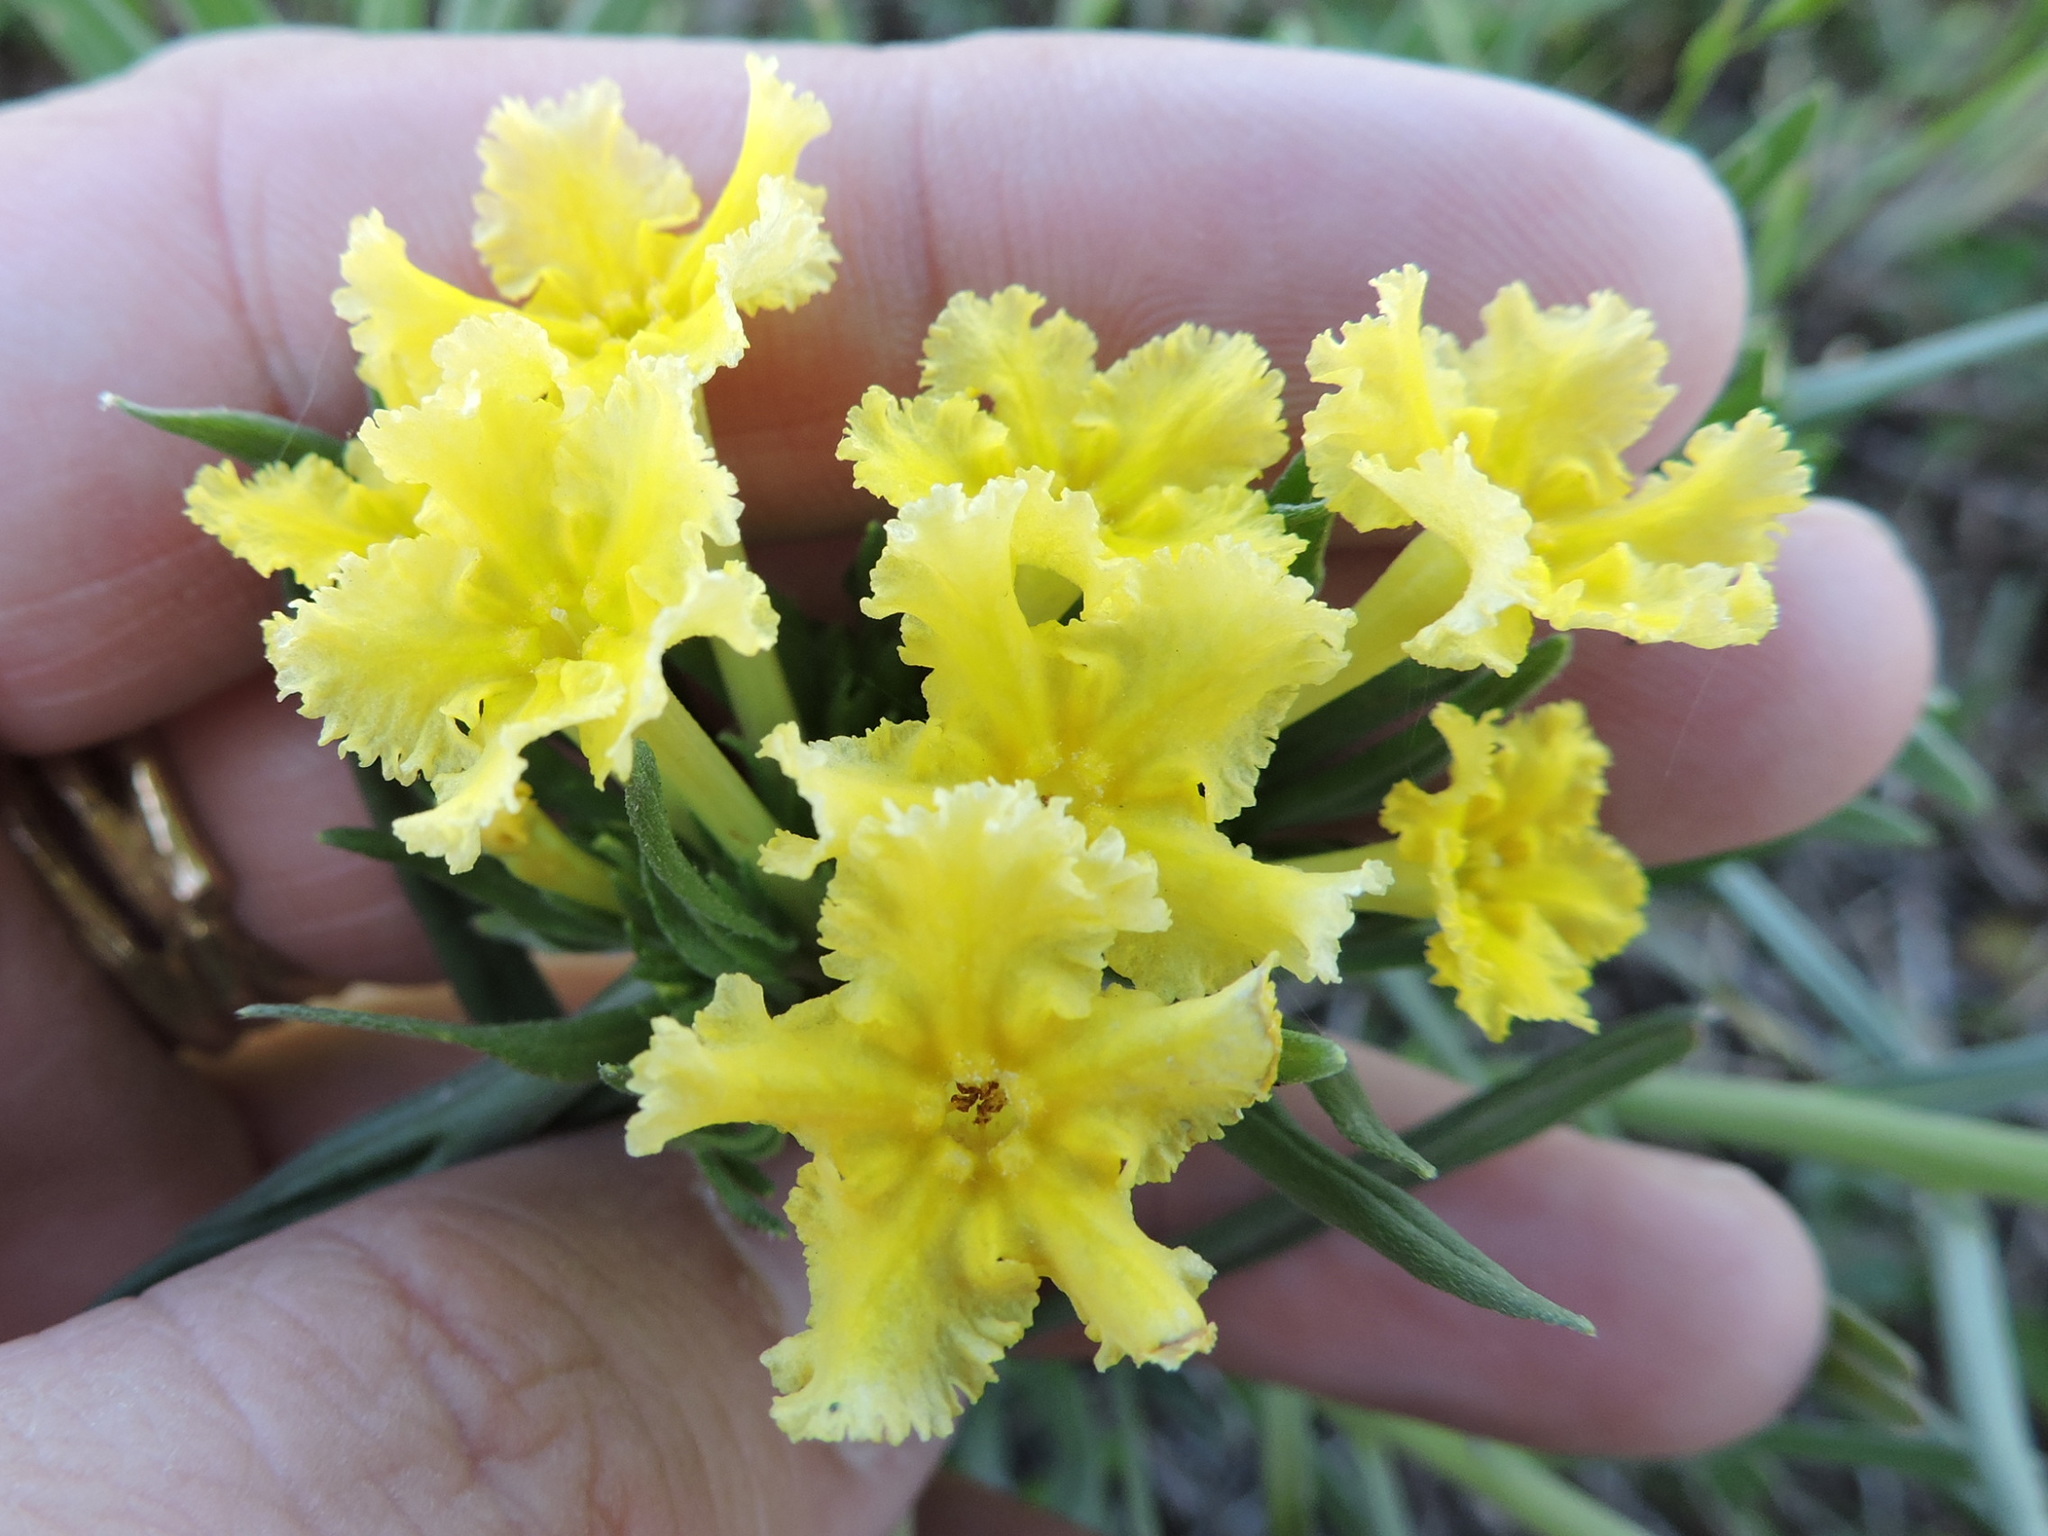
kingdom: Plantae
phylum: Tracheophyta
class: Magnoliopsida
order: Boraginales
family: Boraginaceae
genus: Lithospermum
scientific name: Lithospermum incisum
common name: Fringed gromwell
